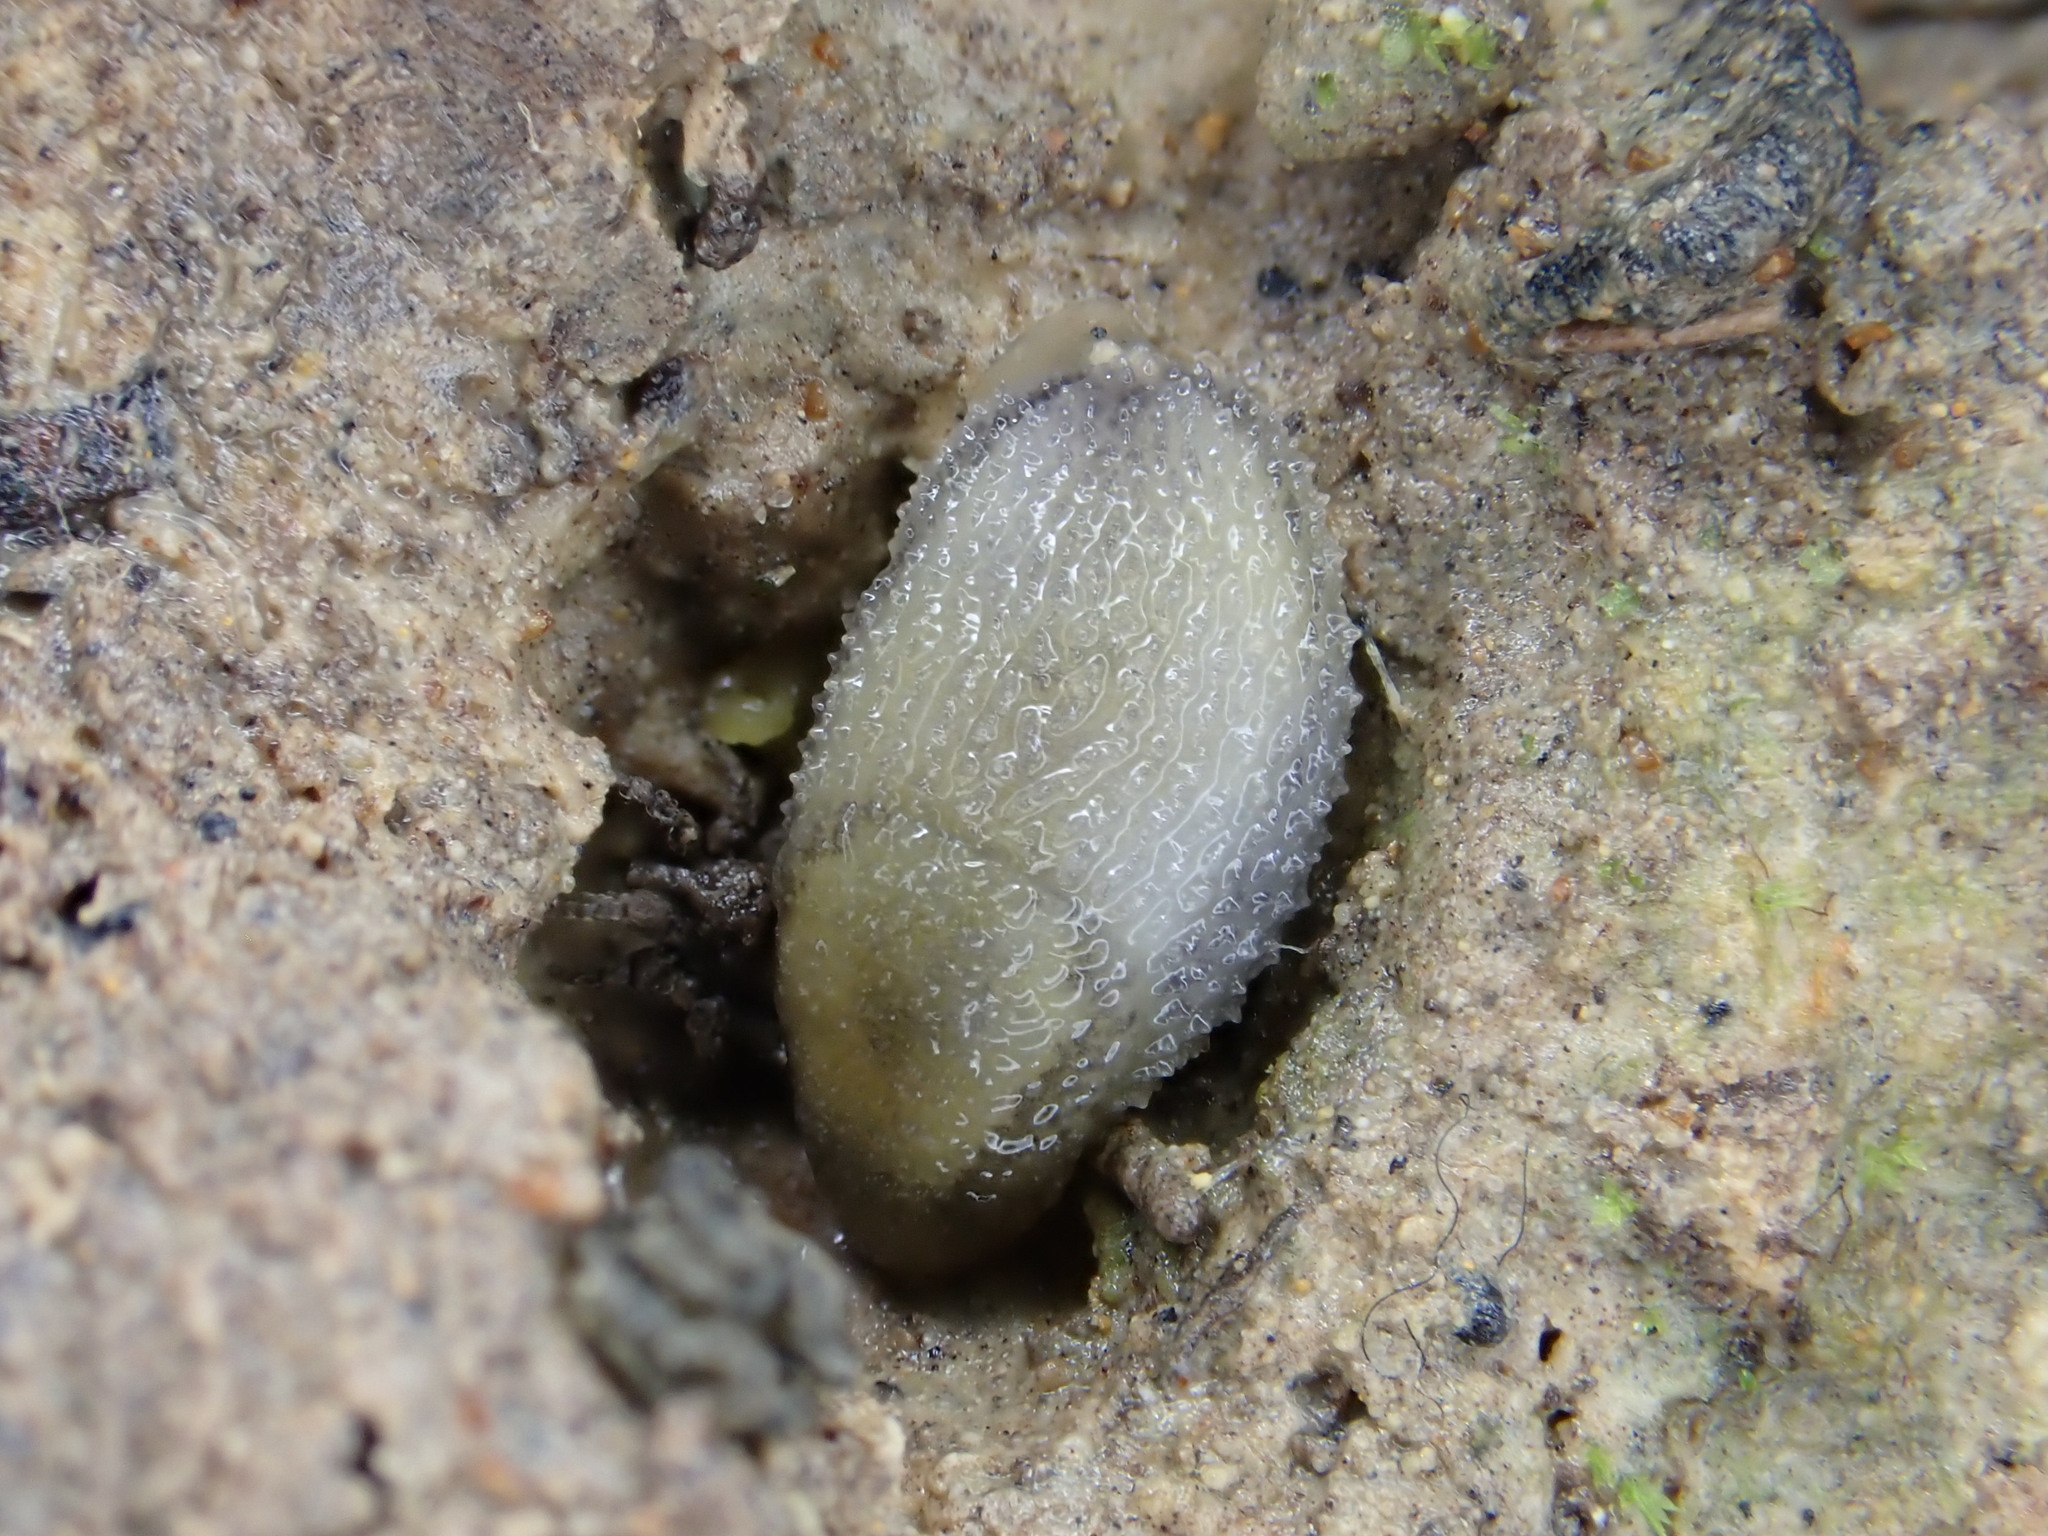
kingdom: Animalia
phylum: Mollusca
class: Gastropoda
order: Stylommatophora
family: Arionidae
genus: Arion
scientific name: Arion intermedius
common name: Hedgehog slug
